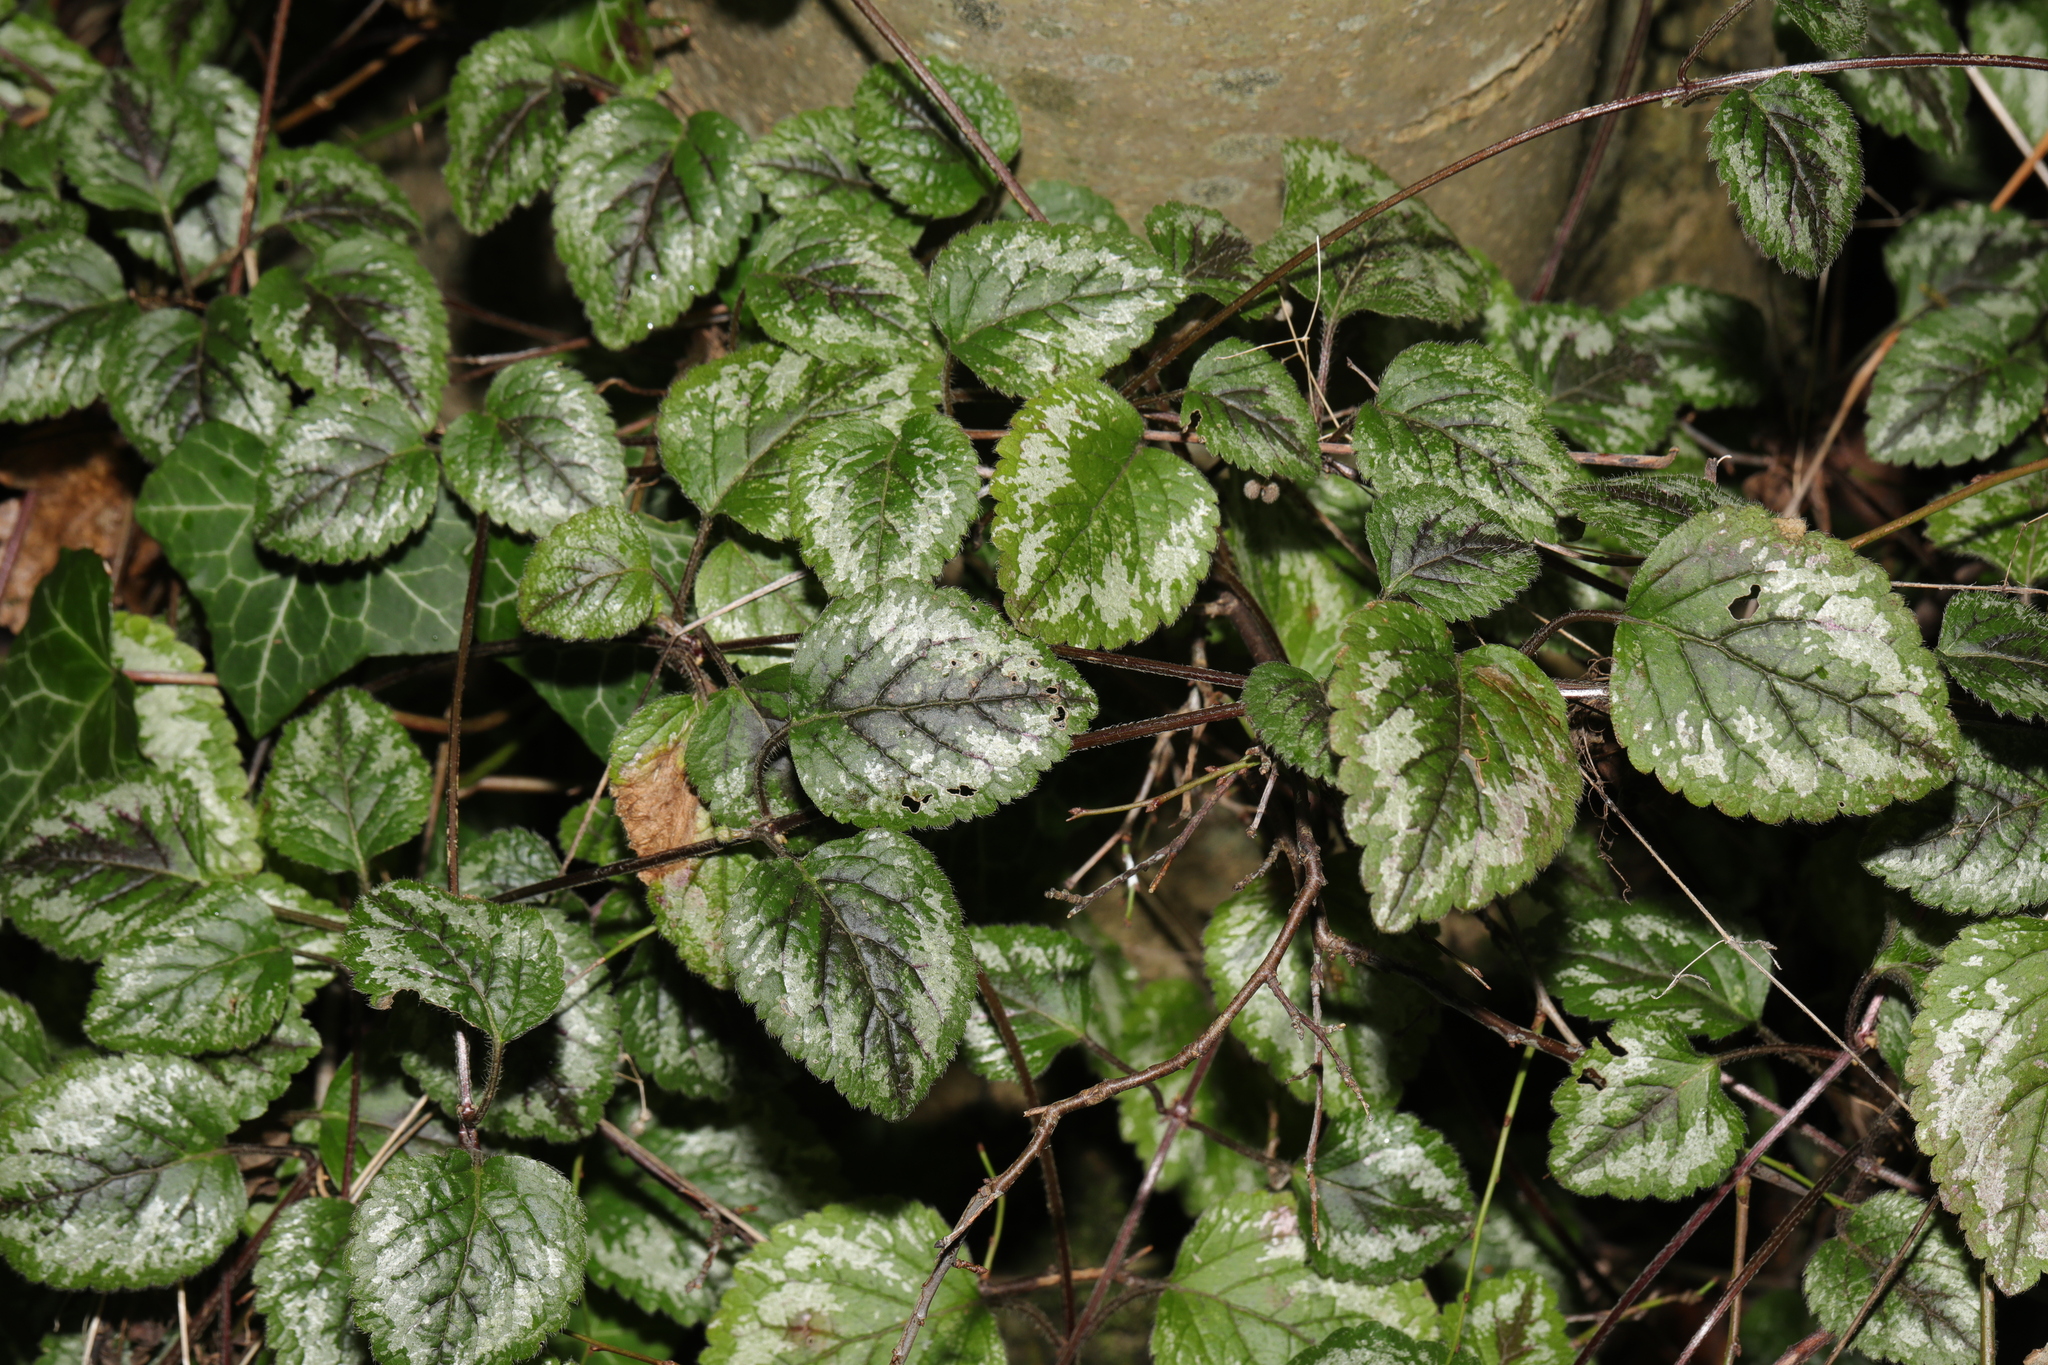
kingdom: Plantae
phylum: Tracheophyta
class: Magnoliopsida
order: Lamiales
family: Lamiaceae
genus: Lamium
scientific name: Lamium galeobdolon
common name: Yellow archangel
